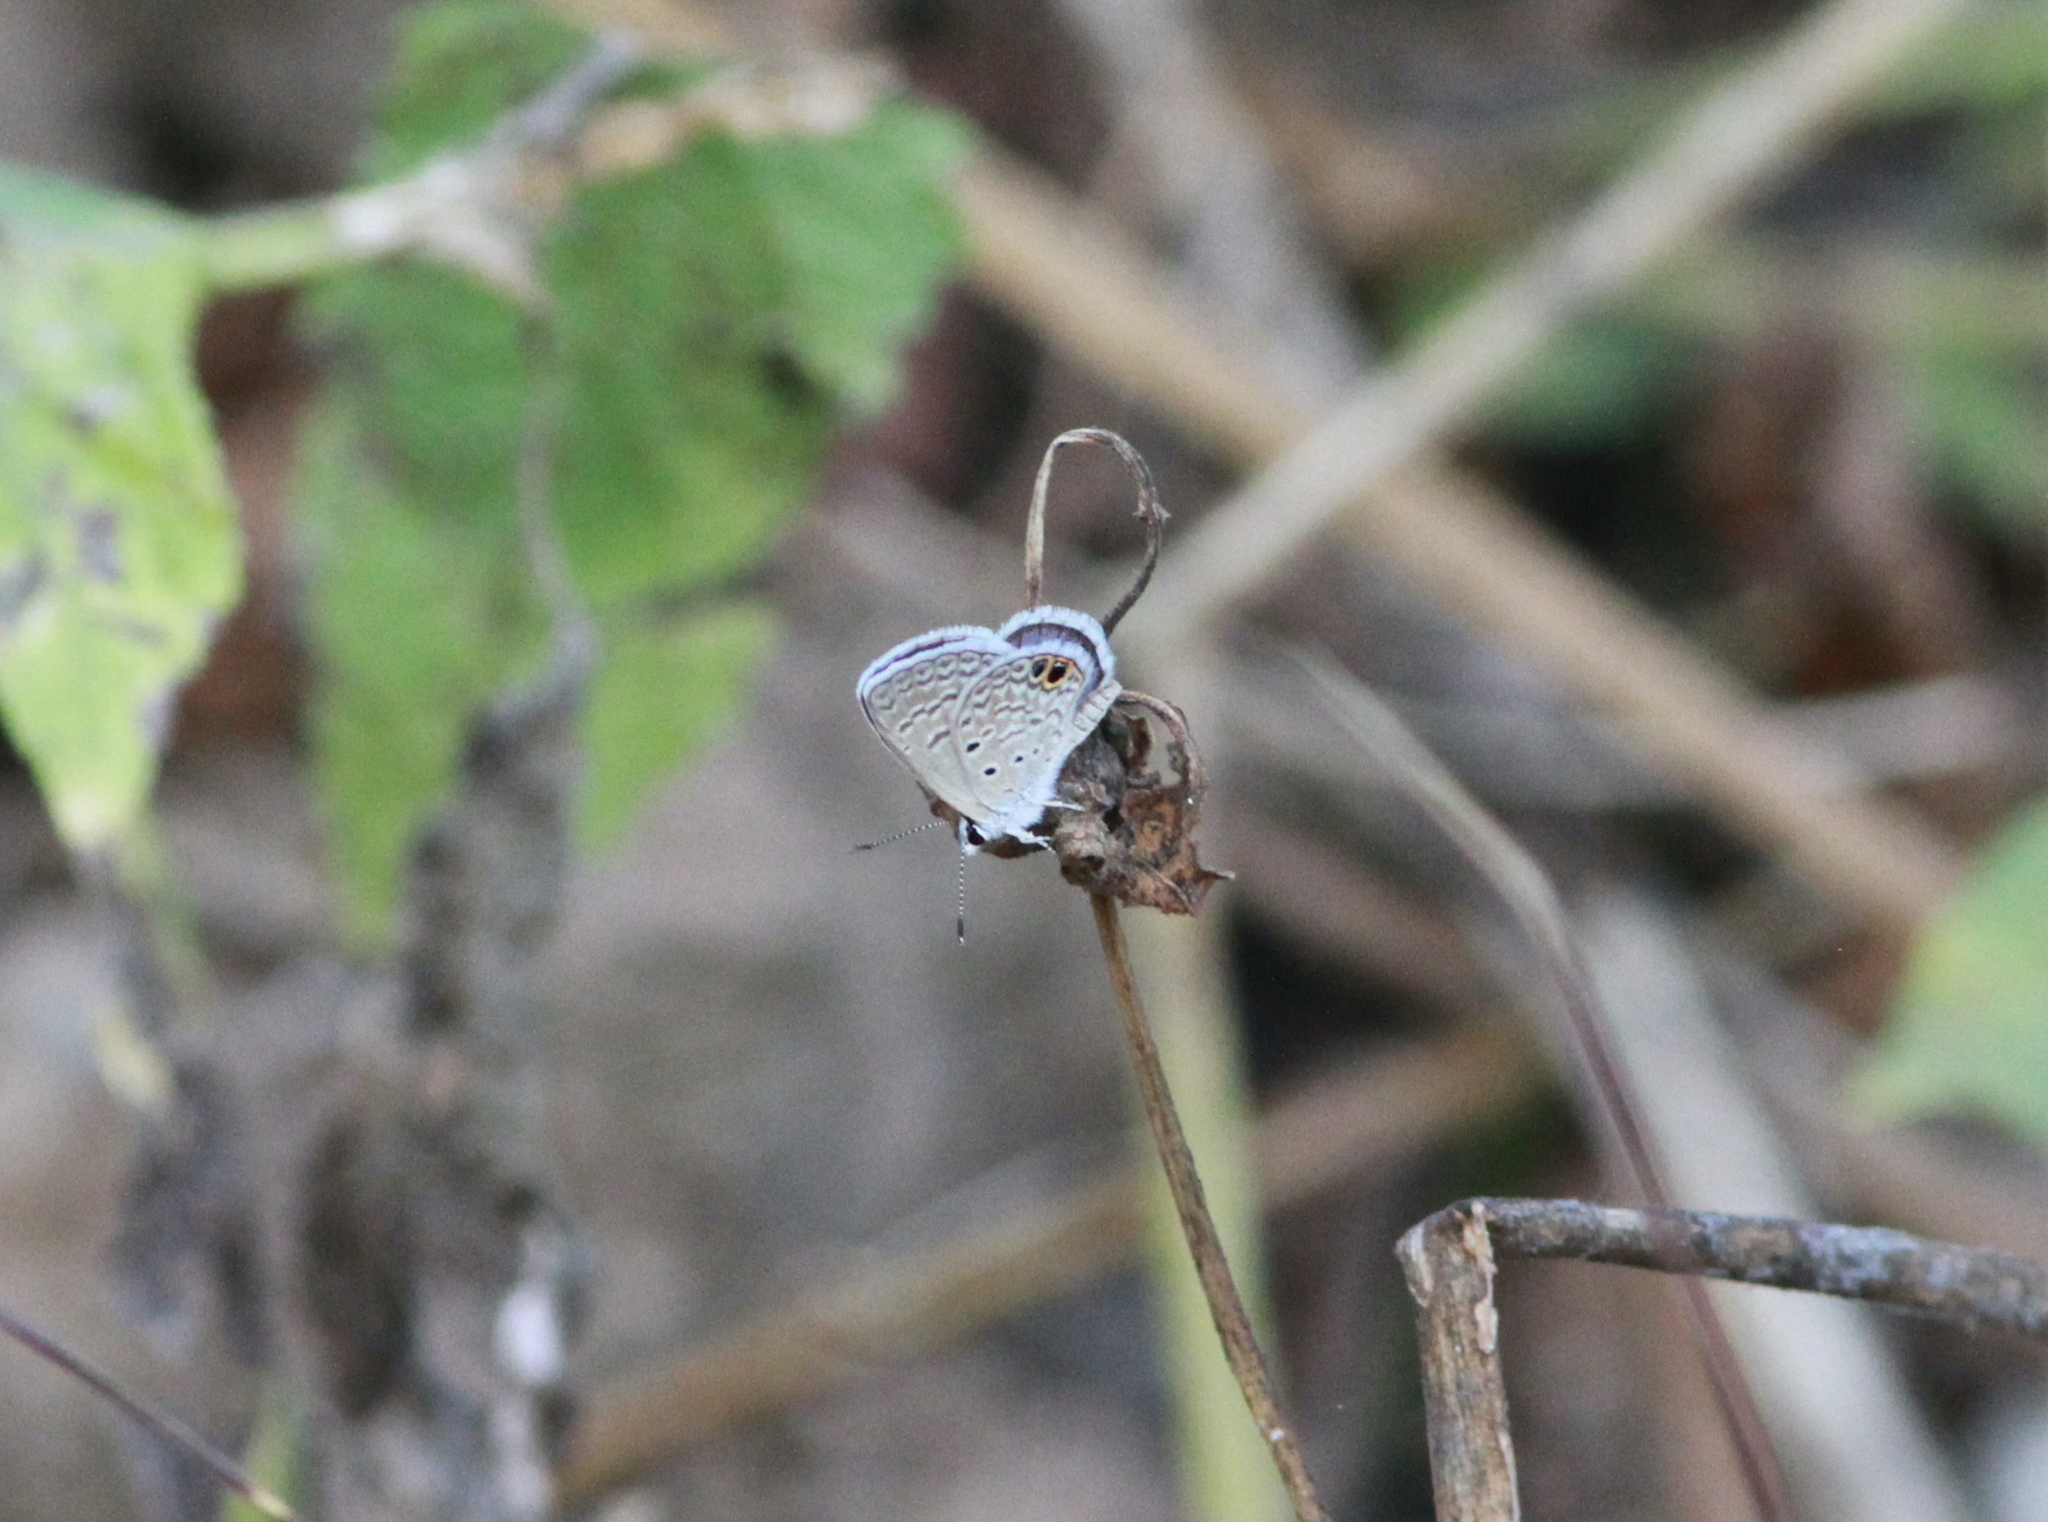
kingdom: Animalia
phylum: Arthropoda
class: Insecta
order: Lepidoptera
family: Lycaenidae
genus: Hemiargus
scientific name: Hemiargus ceraunus
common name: Ceraunus blue
